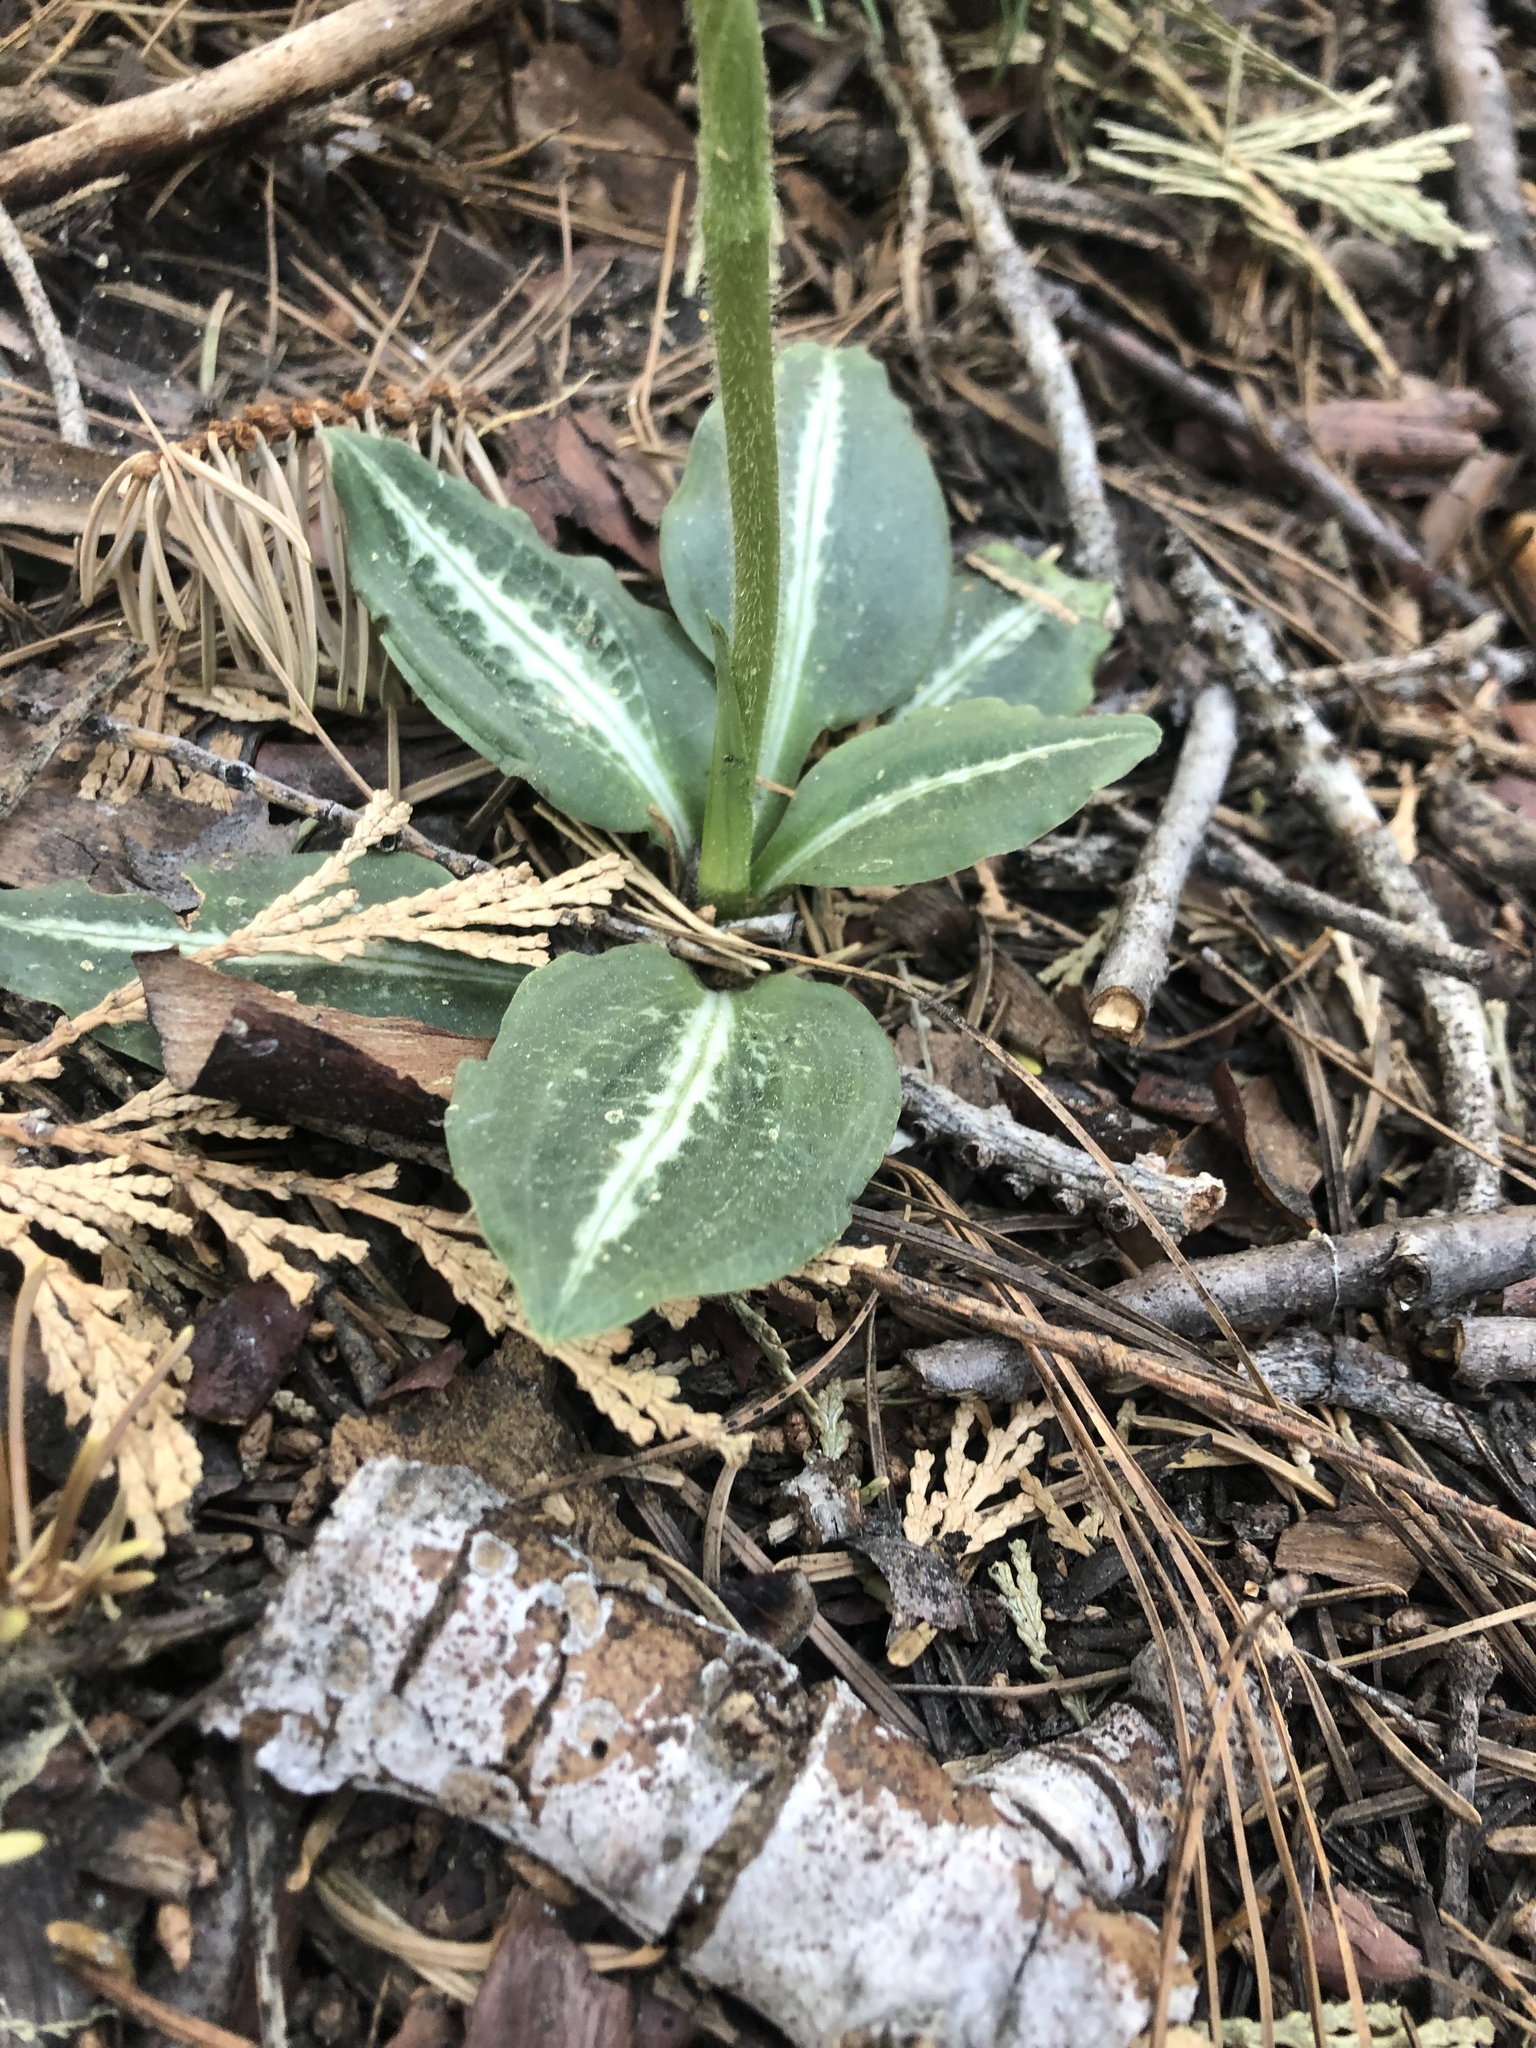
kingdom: Plantae
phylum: Tracheophyta
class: Liliopsida
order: Asparagales
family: Orchidaceae
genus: Goodyera
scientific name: Goodyera oblongifolia
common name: Giant rattlesnake-plantain
